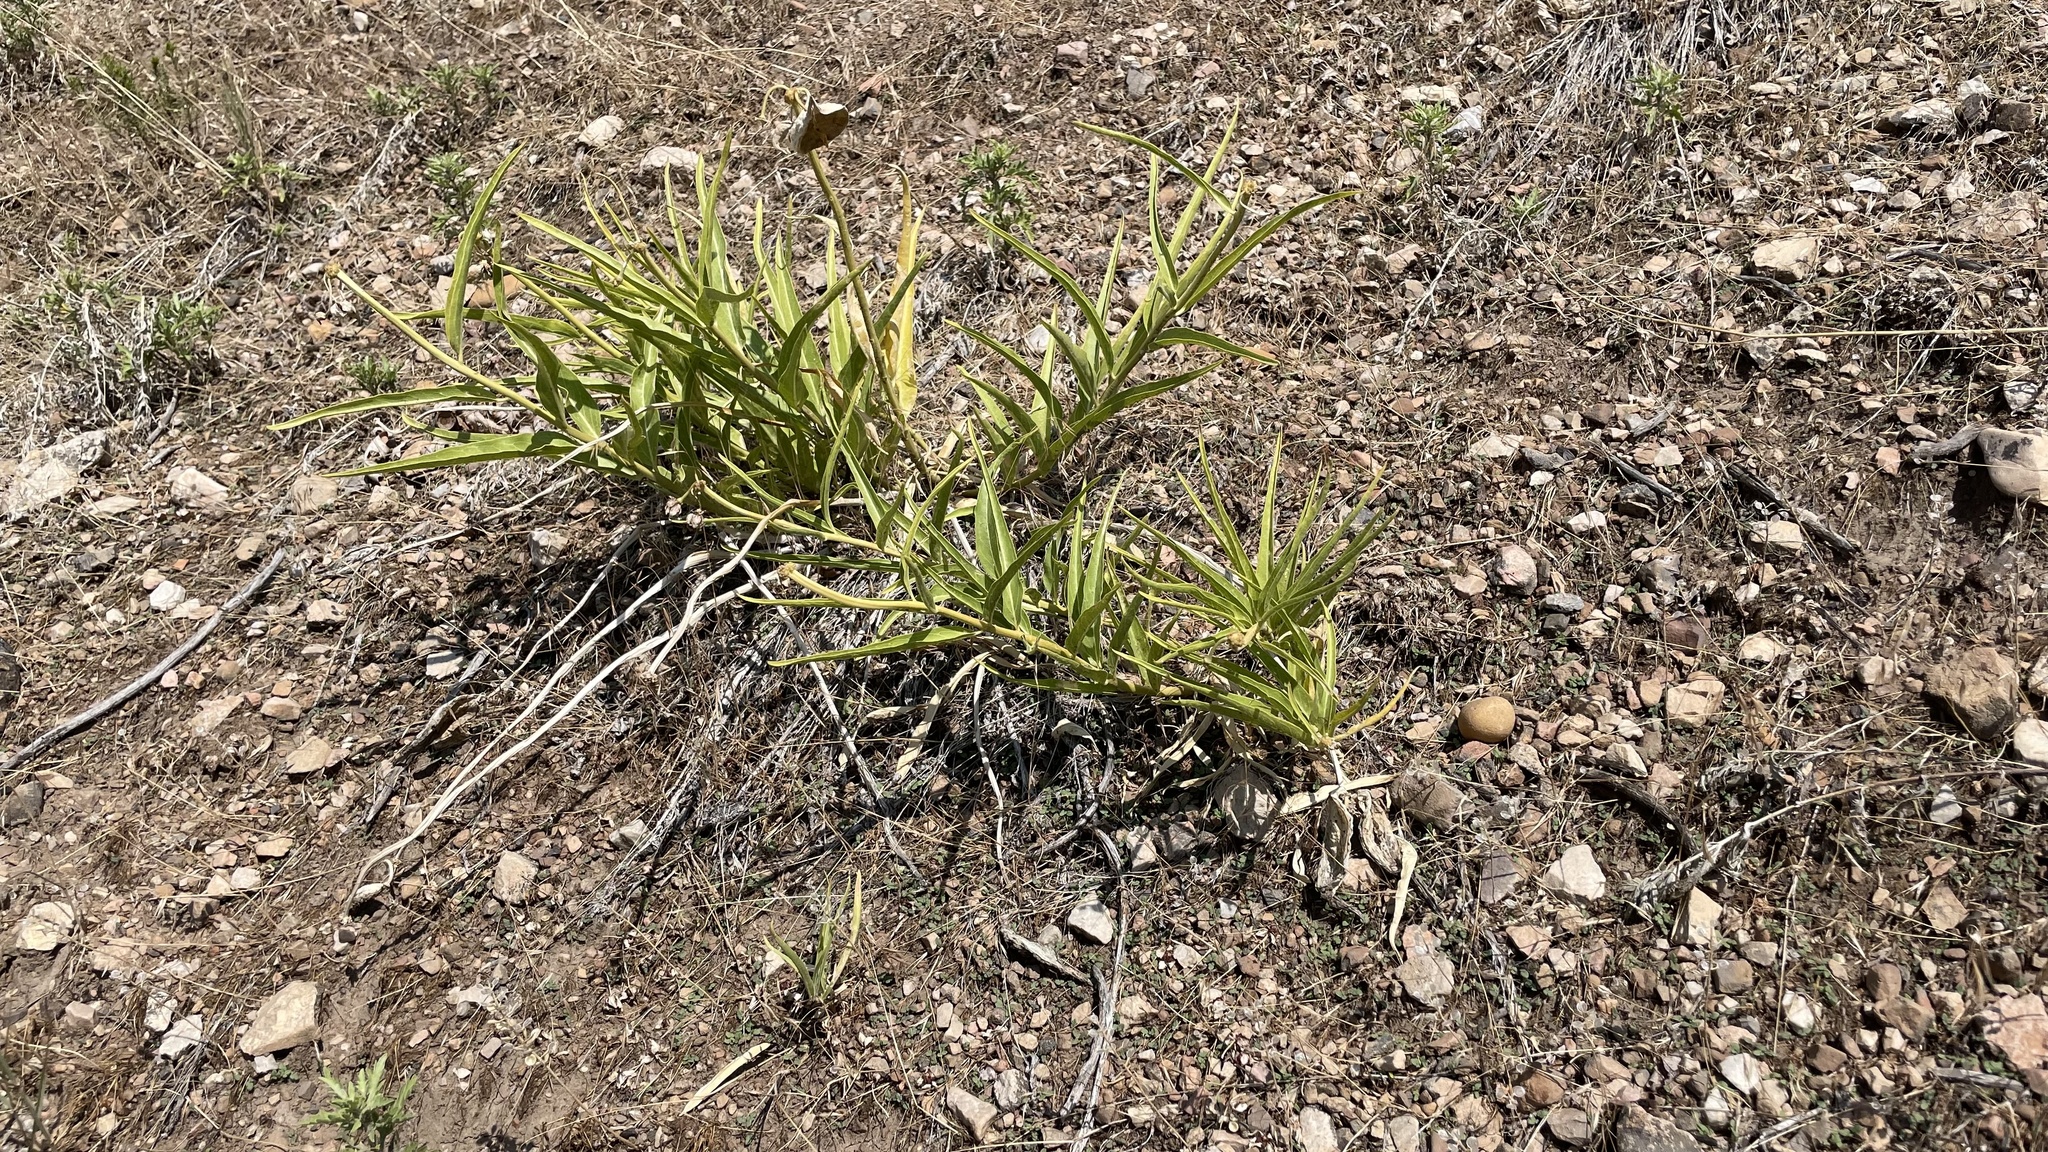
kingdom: Plantae
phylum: Tracheophyta
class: Magnoliopsida
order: Gentianales
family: Apocynaceae
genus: Asclepias
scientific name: Asclepias asperula
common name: Antelope horns
